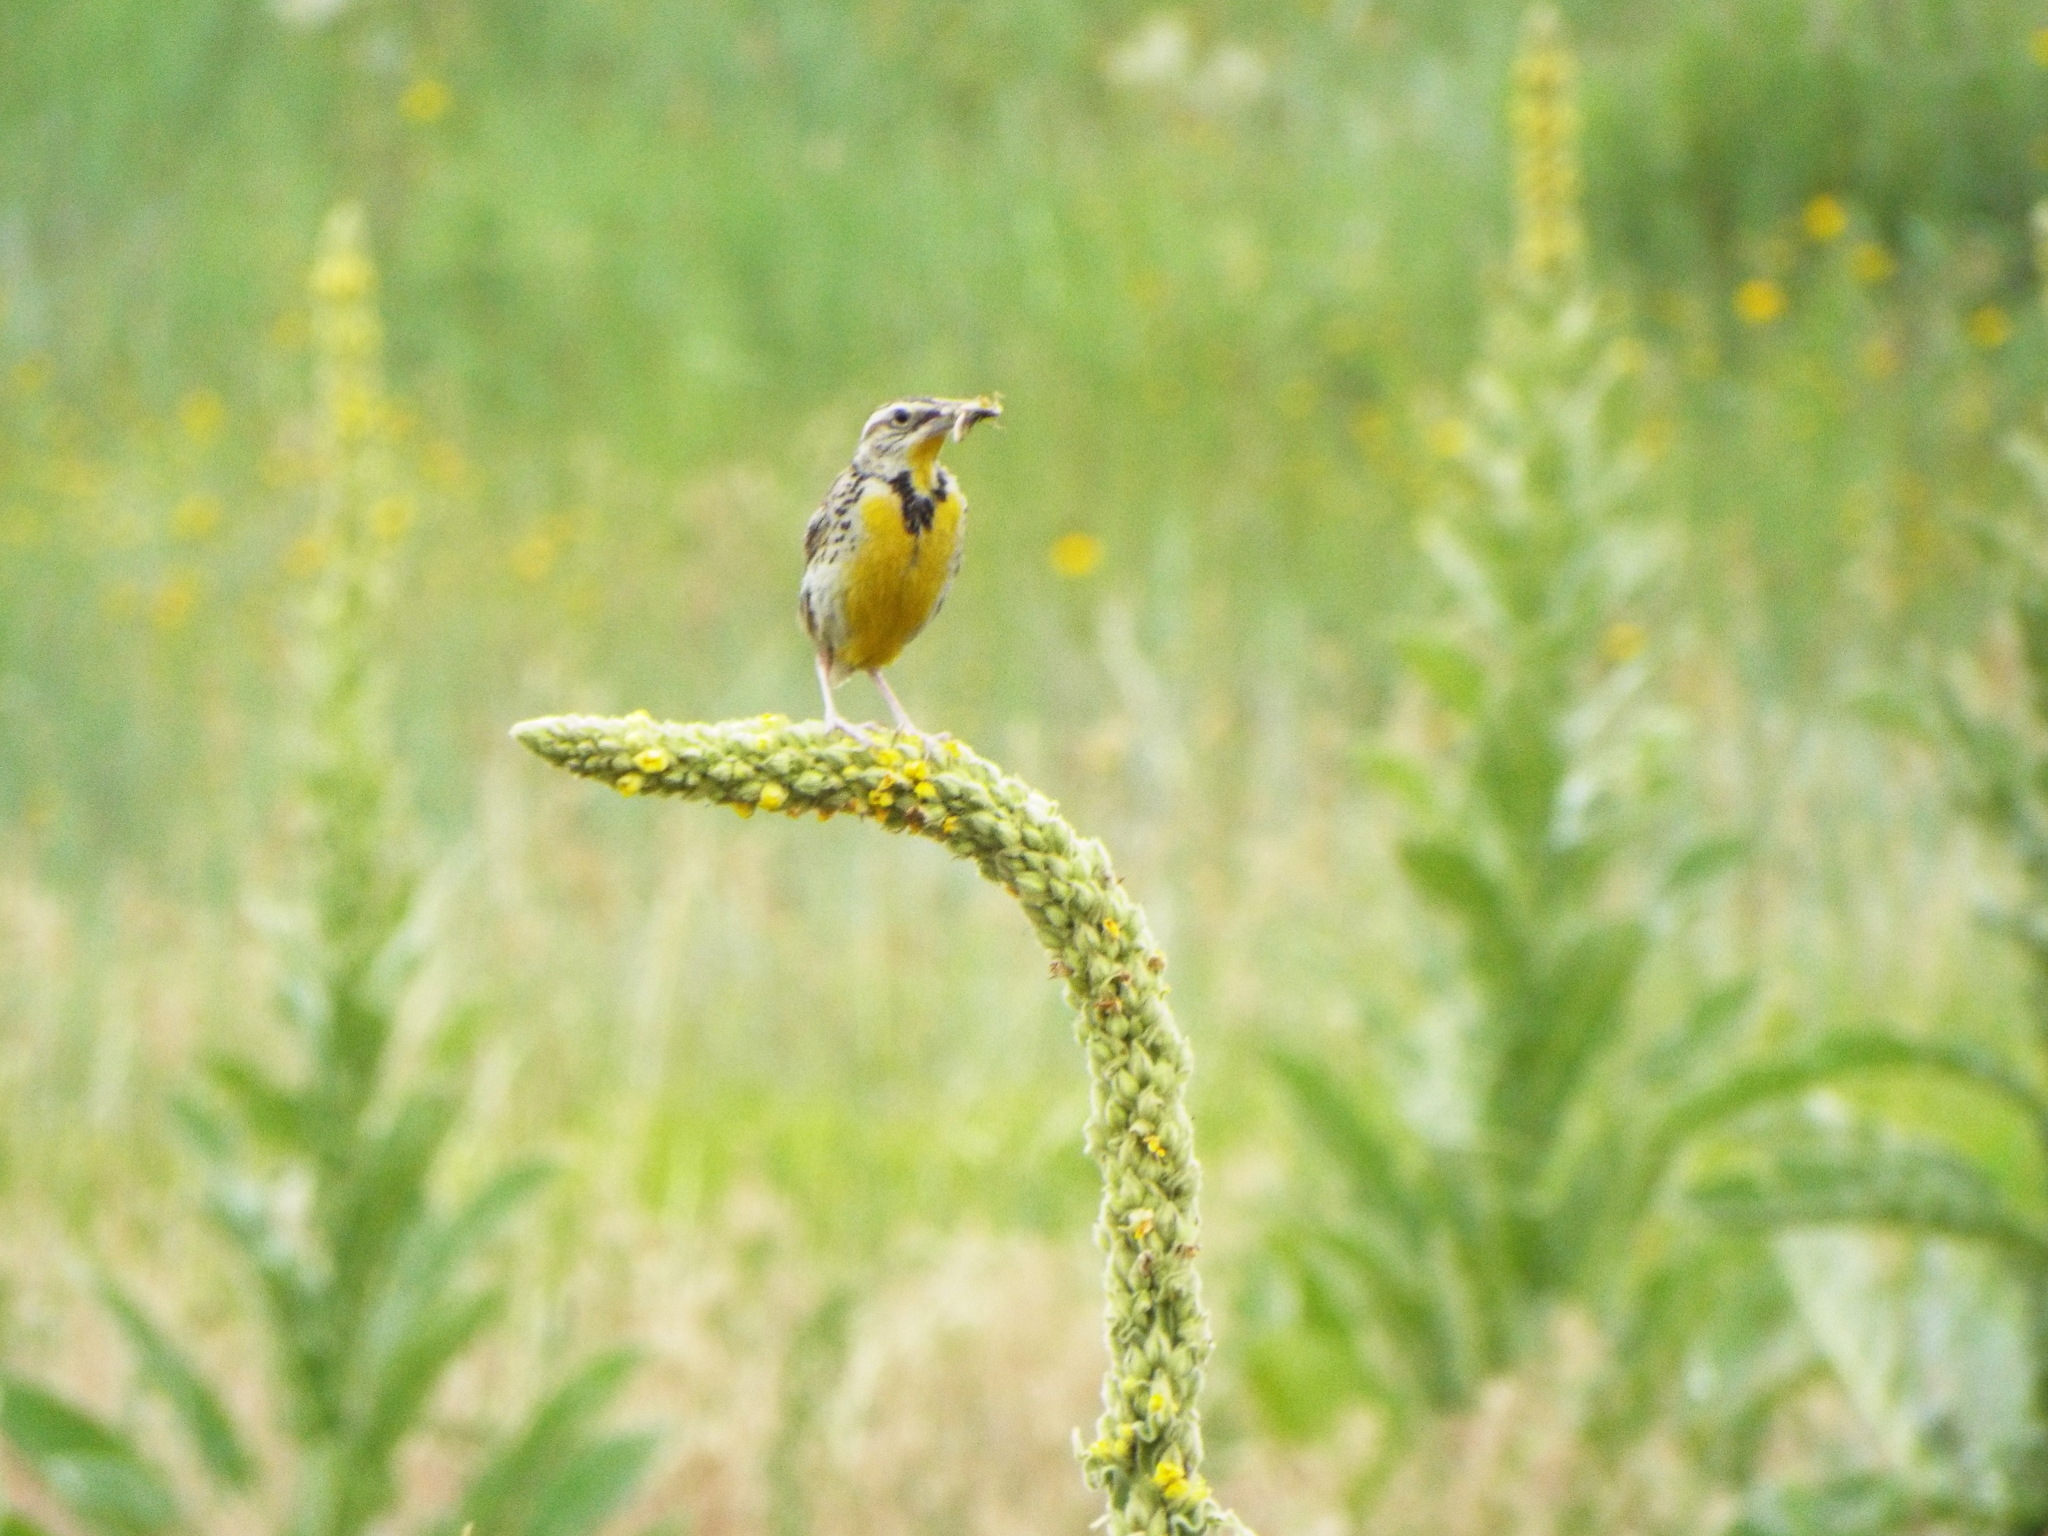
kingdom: Animalia
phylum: Chordata
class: Aves
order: Passeriformes
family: Icteridae
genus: Sturnella
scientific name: Sturnella neglecta
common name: Western meadowlark
